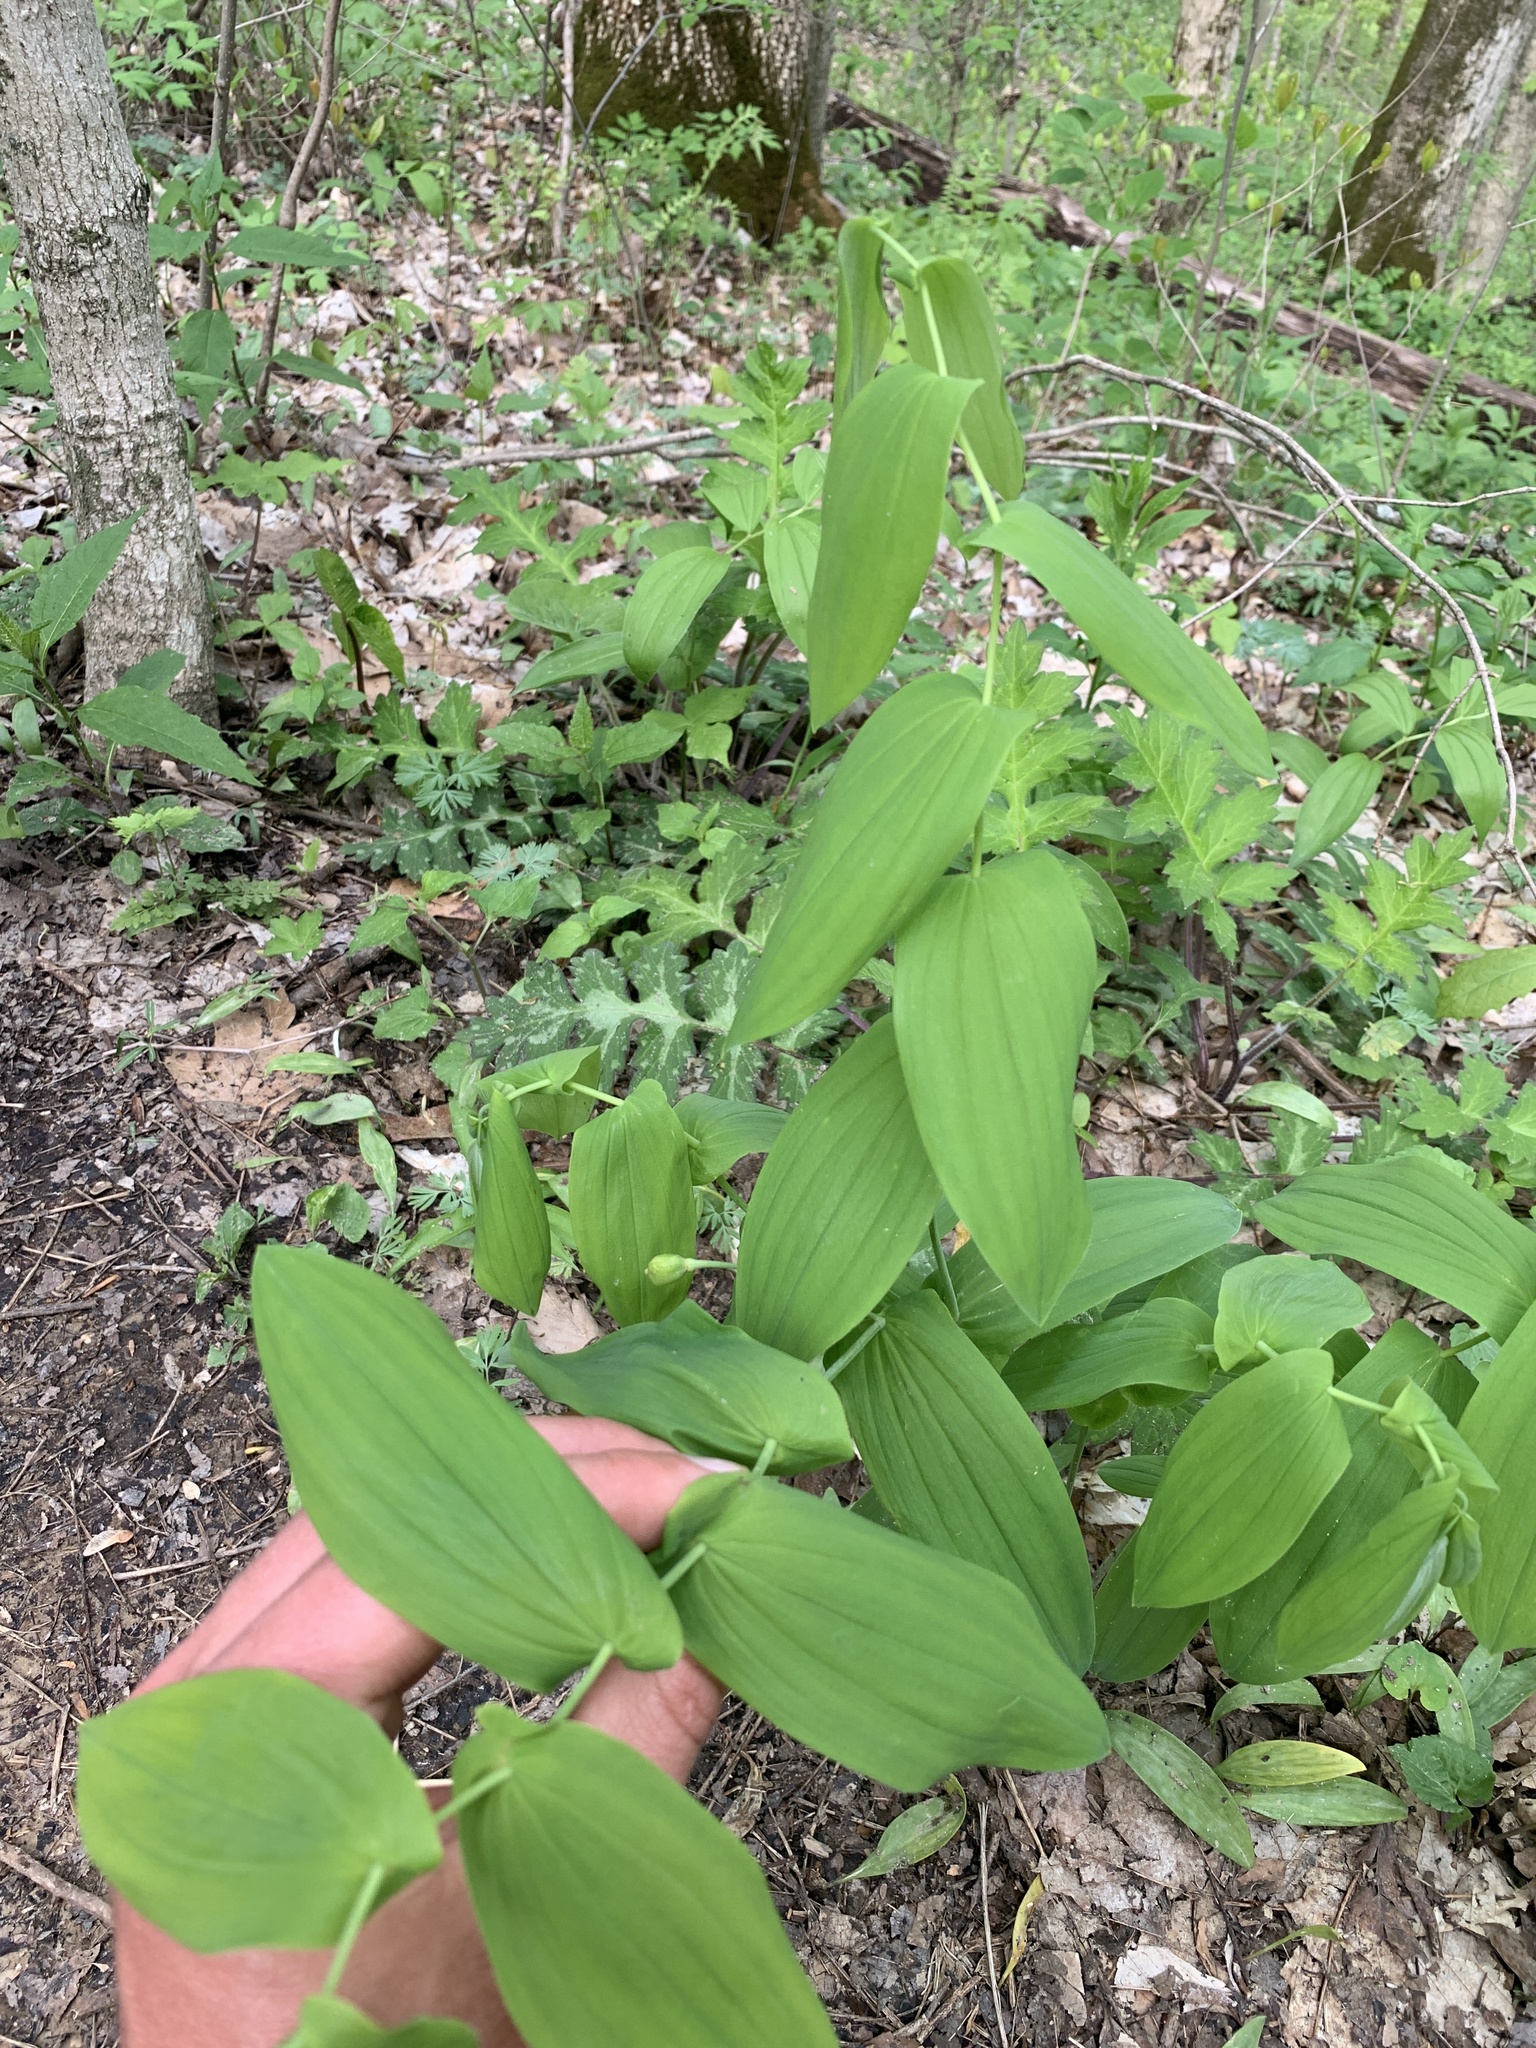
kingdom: Plantae
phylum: Tracheophyta
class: Liliopsida
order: Liliales
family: Colchicaceae
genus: Uvularia
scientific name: Uvularia grandiflora
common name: Bellwort
